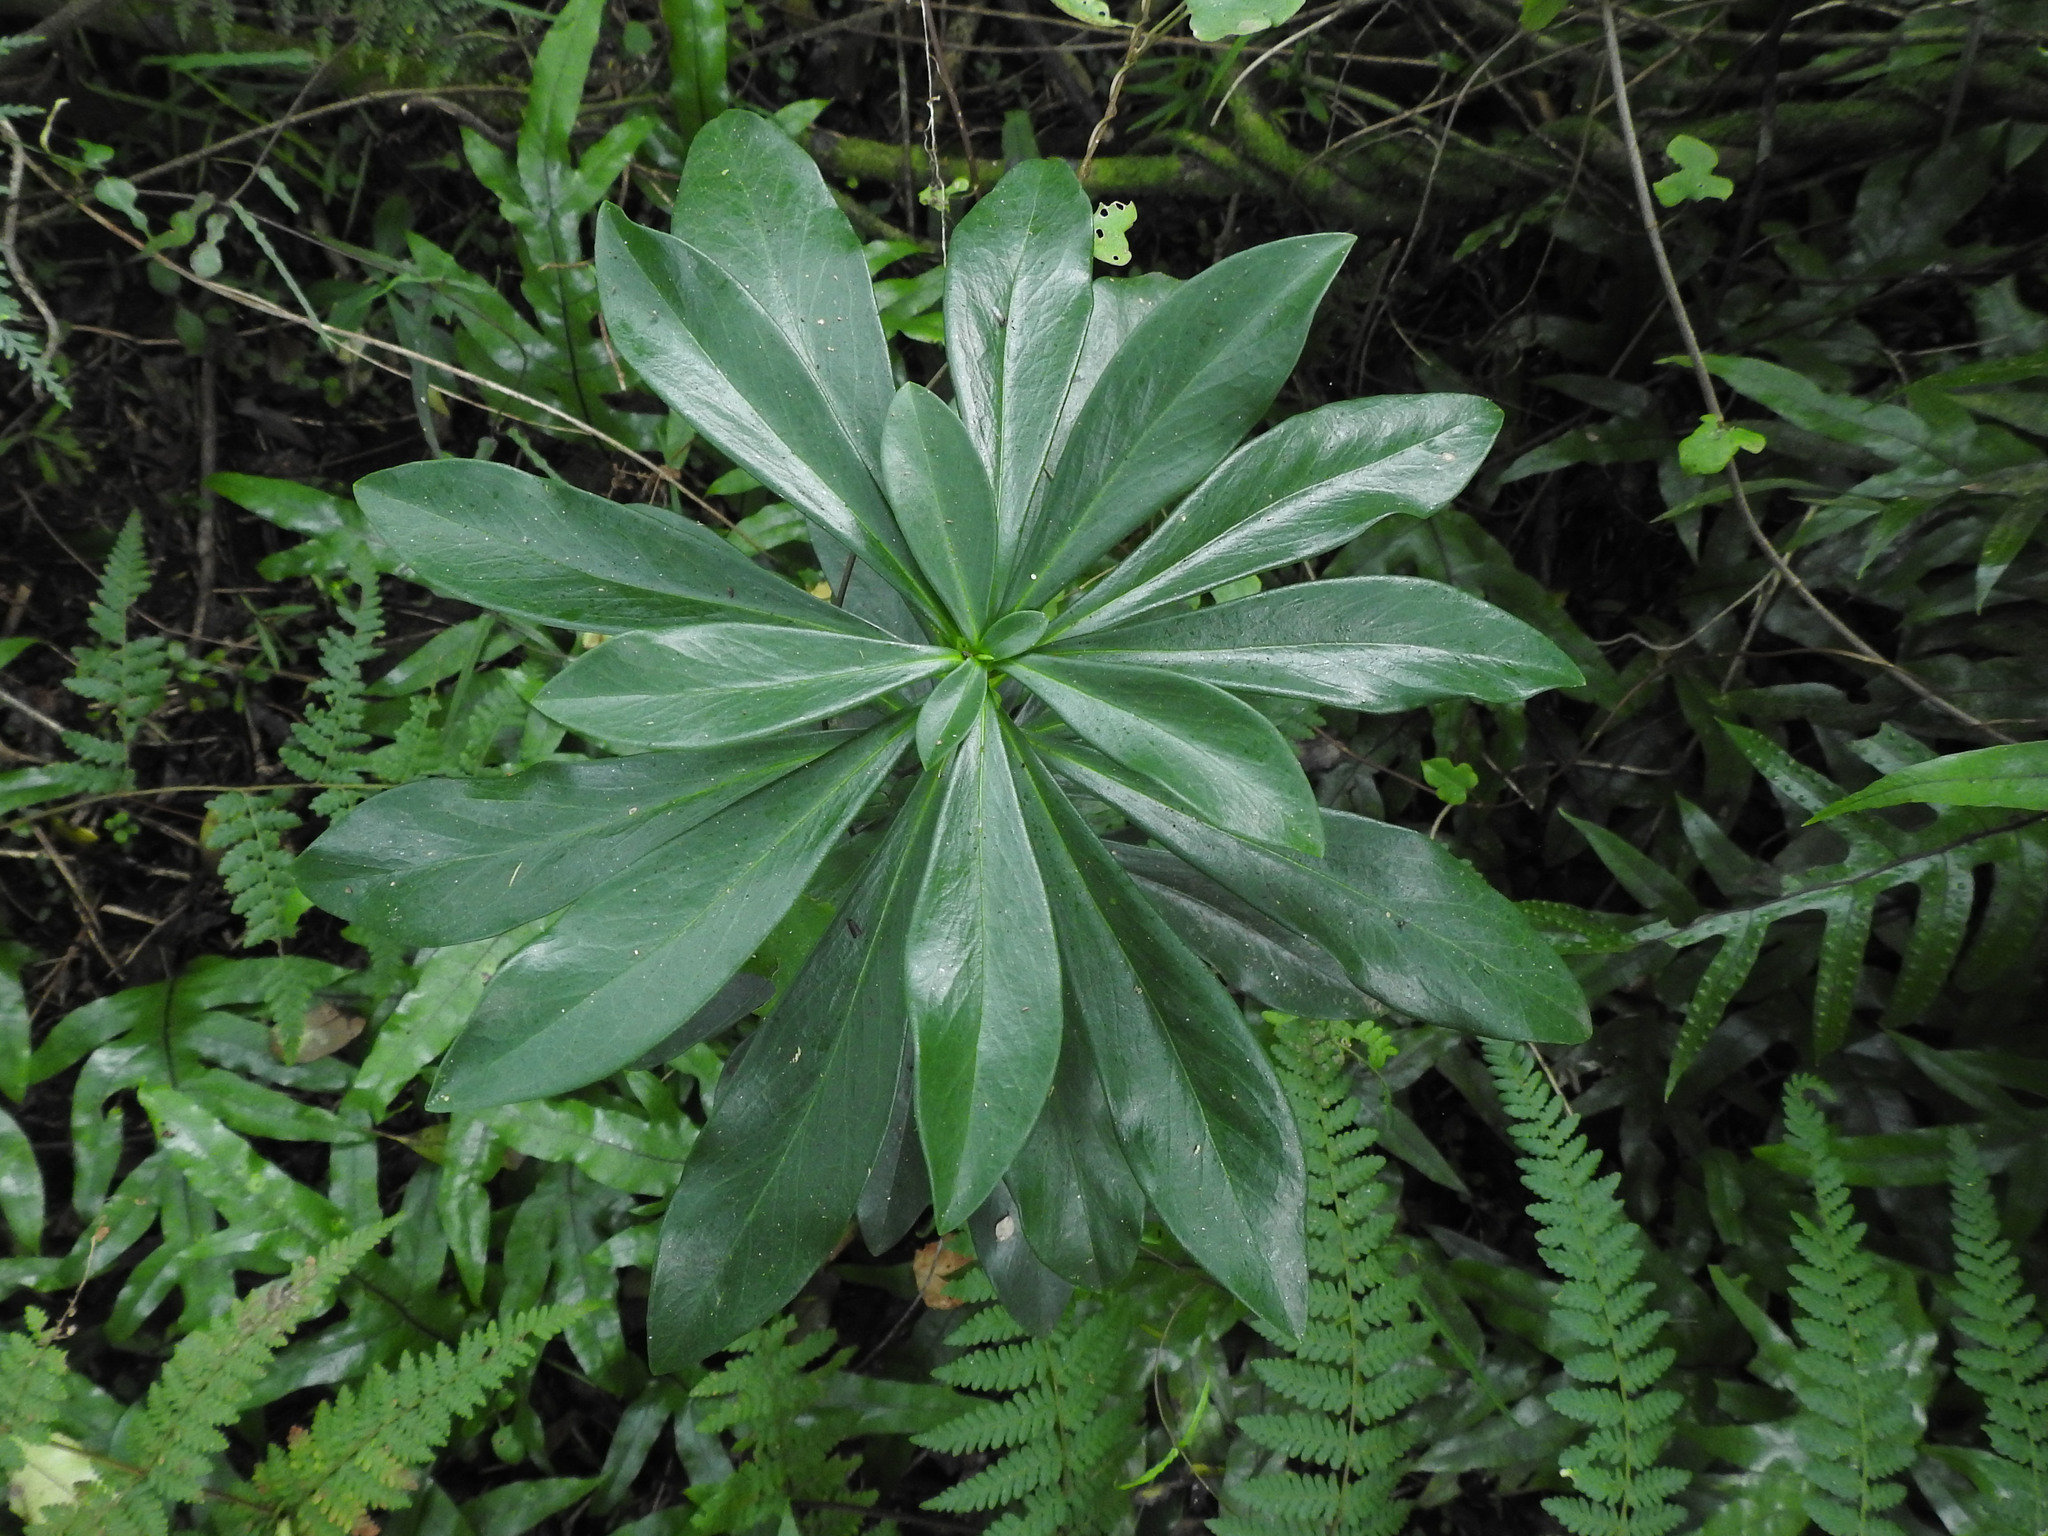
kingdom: Plantae
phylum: Tracheophyta
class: Magnoliopsida
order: Malvales
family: Thymelaeaceae
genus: Daphne
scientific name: Daphne laureola
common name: Spurge-laurel
